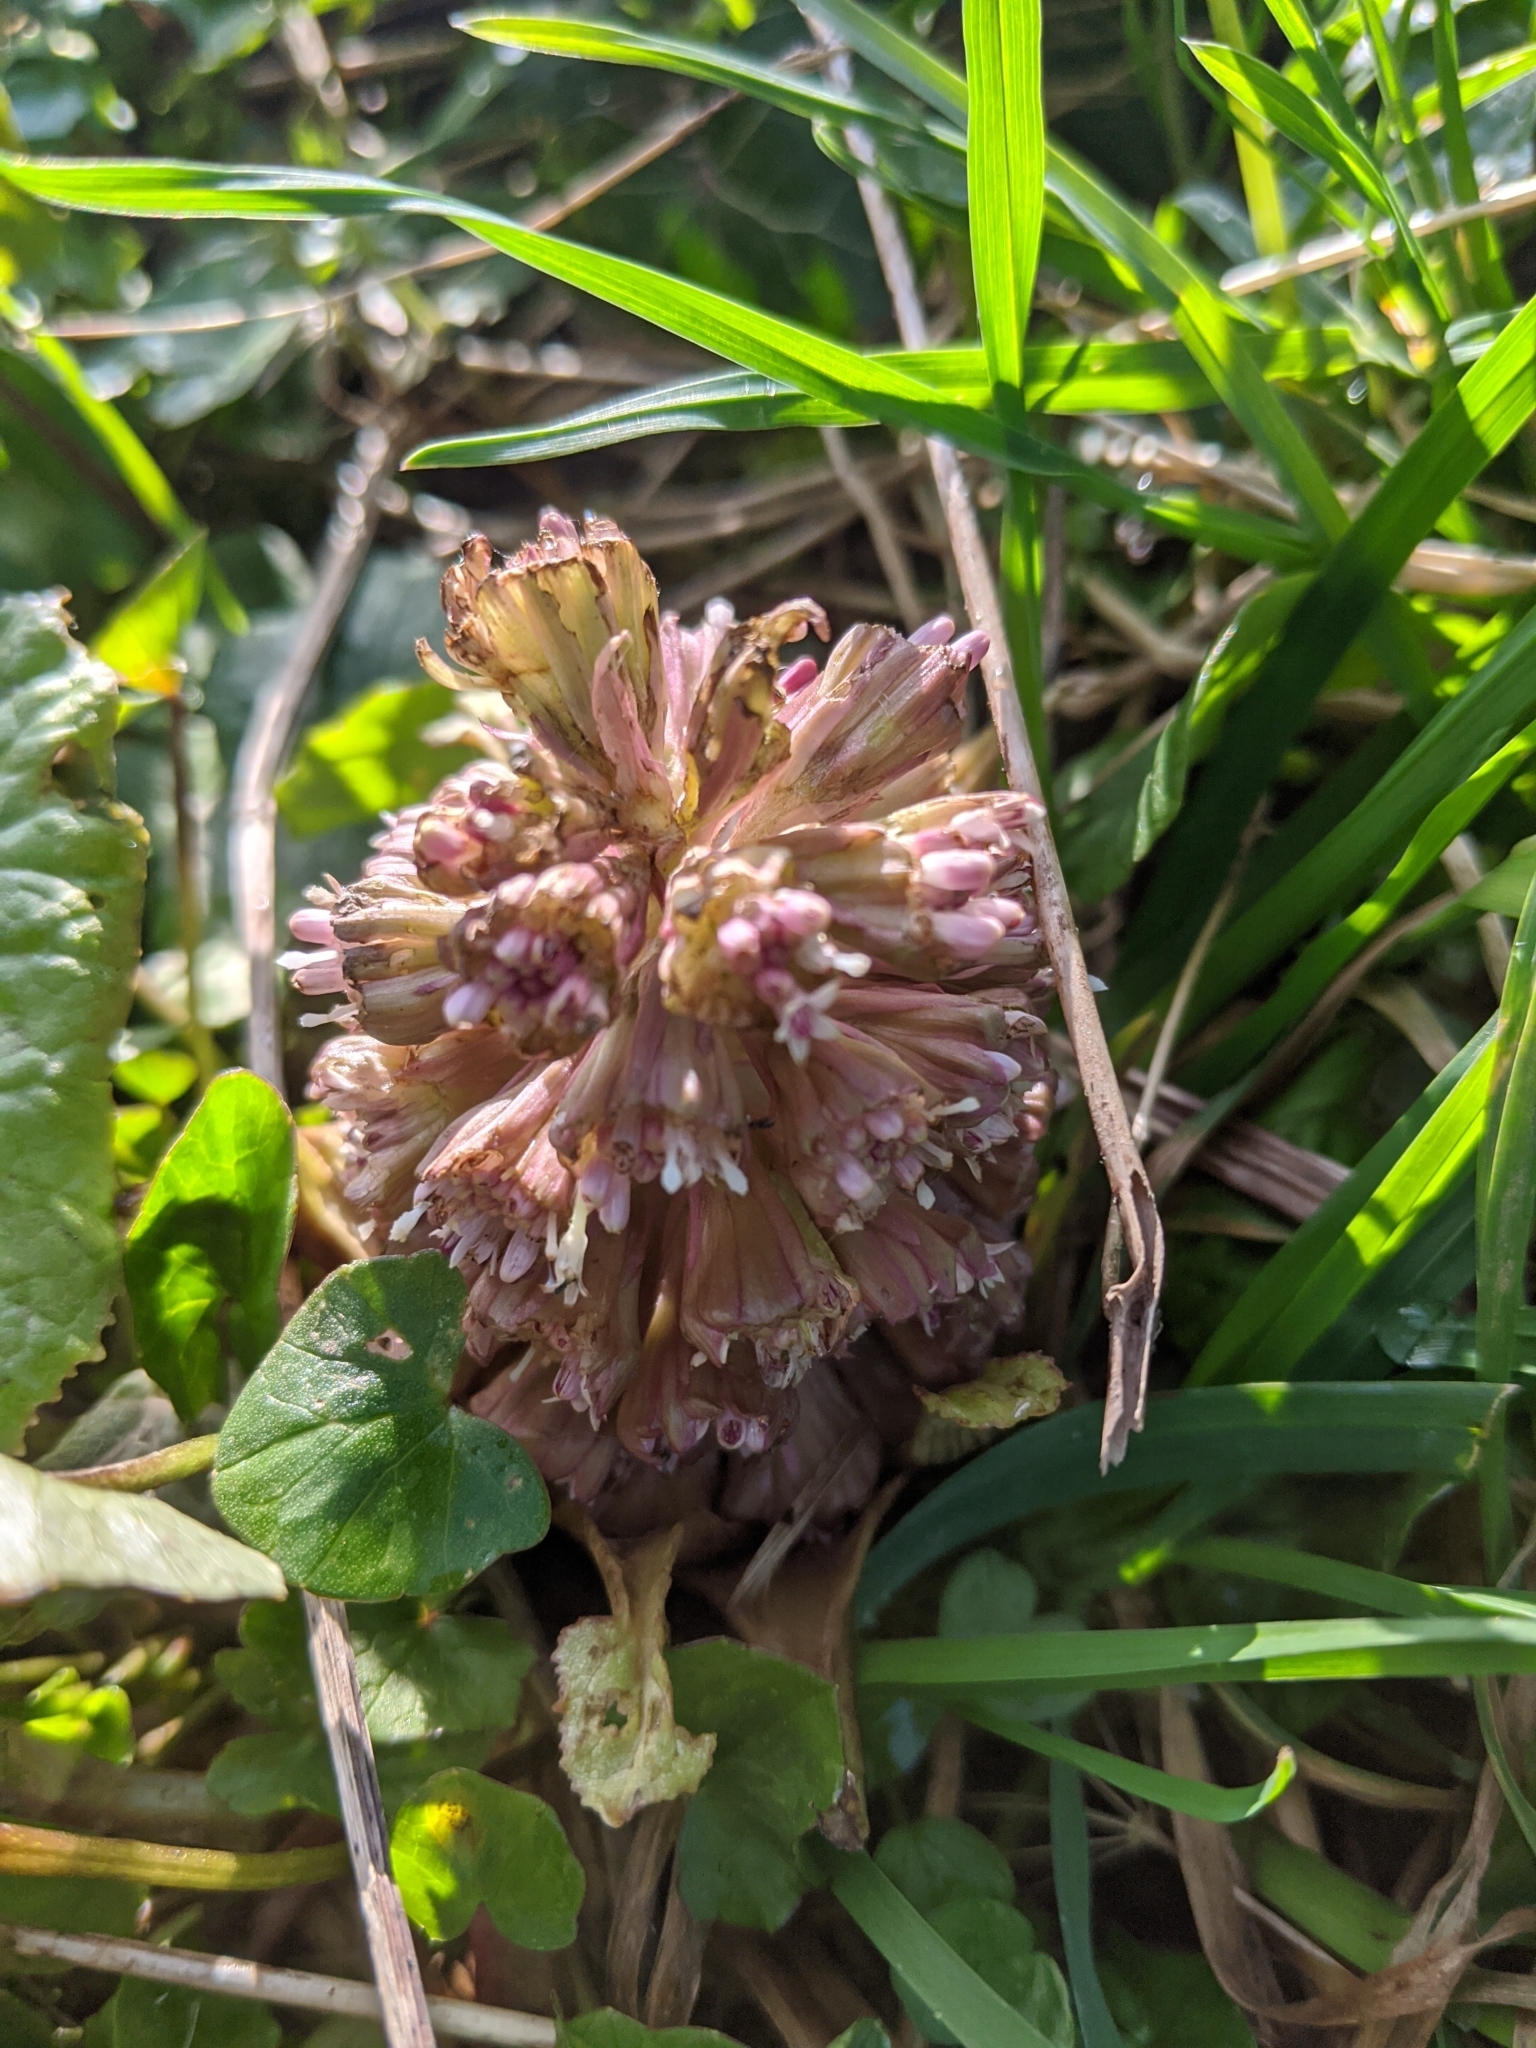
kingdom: Plantae
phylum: Tracheophyta
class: Magnoliopsida
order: Asterales
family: Asteraceae
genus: Petasites
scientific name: Petasites hybridus
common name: Butterbur
